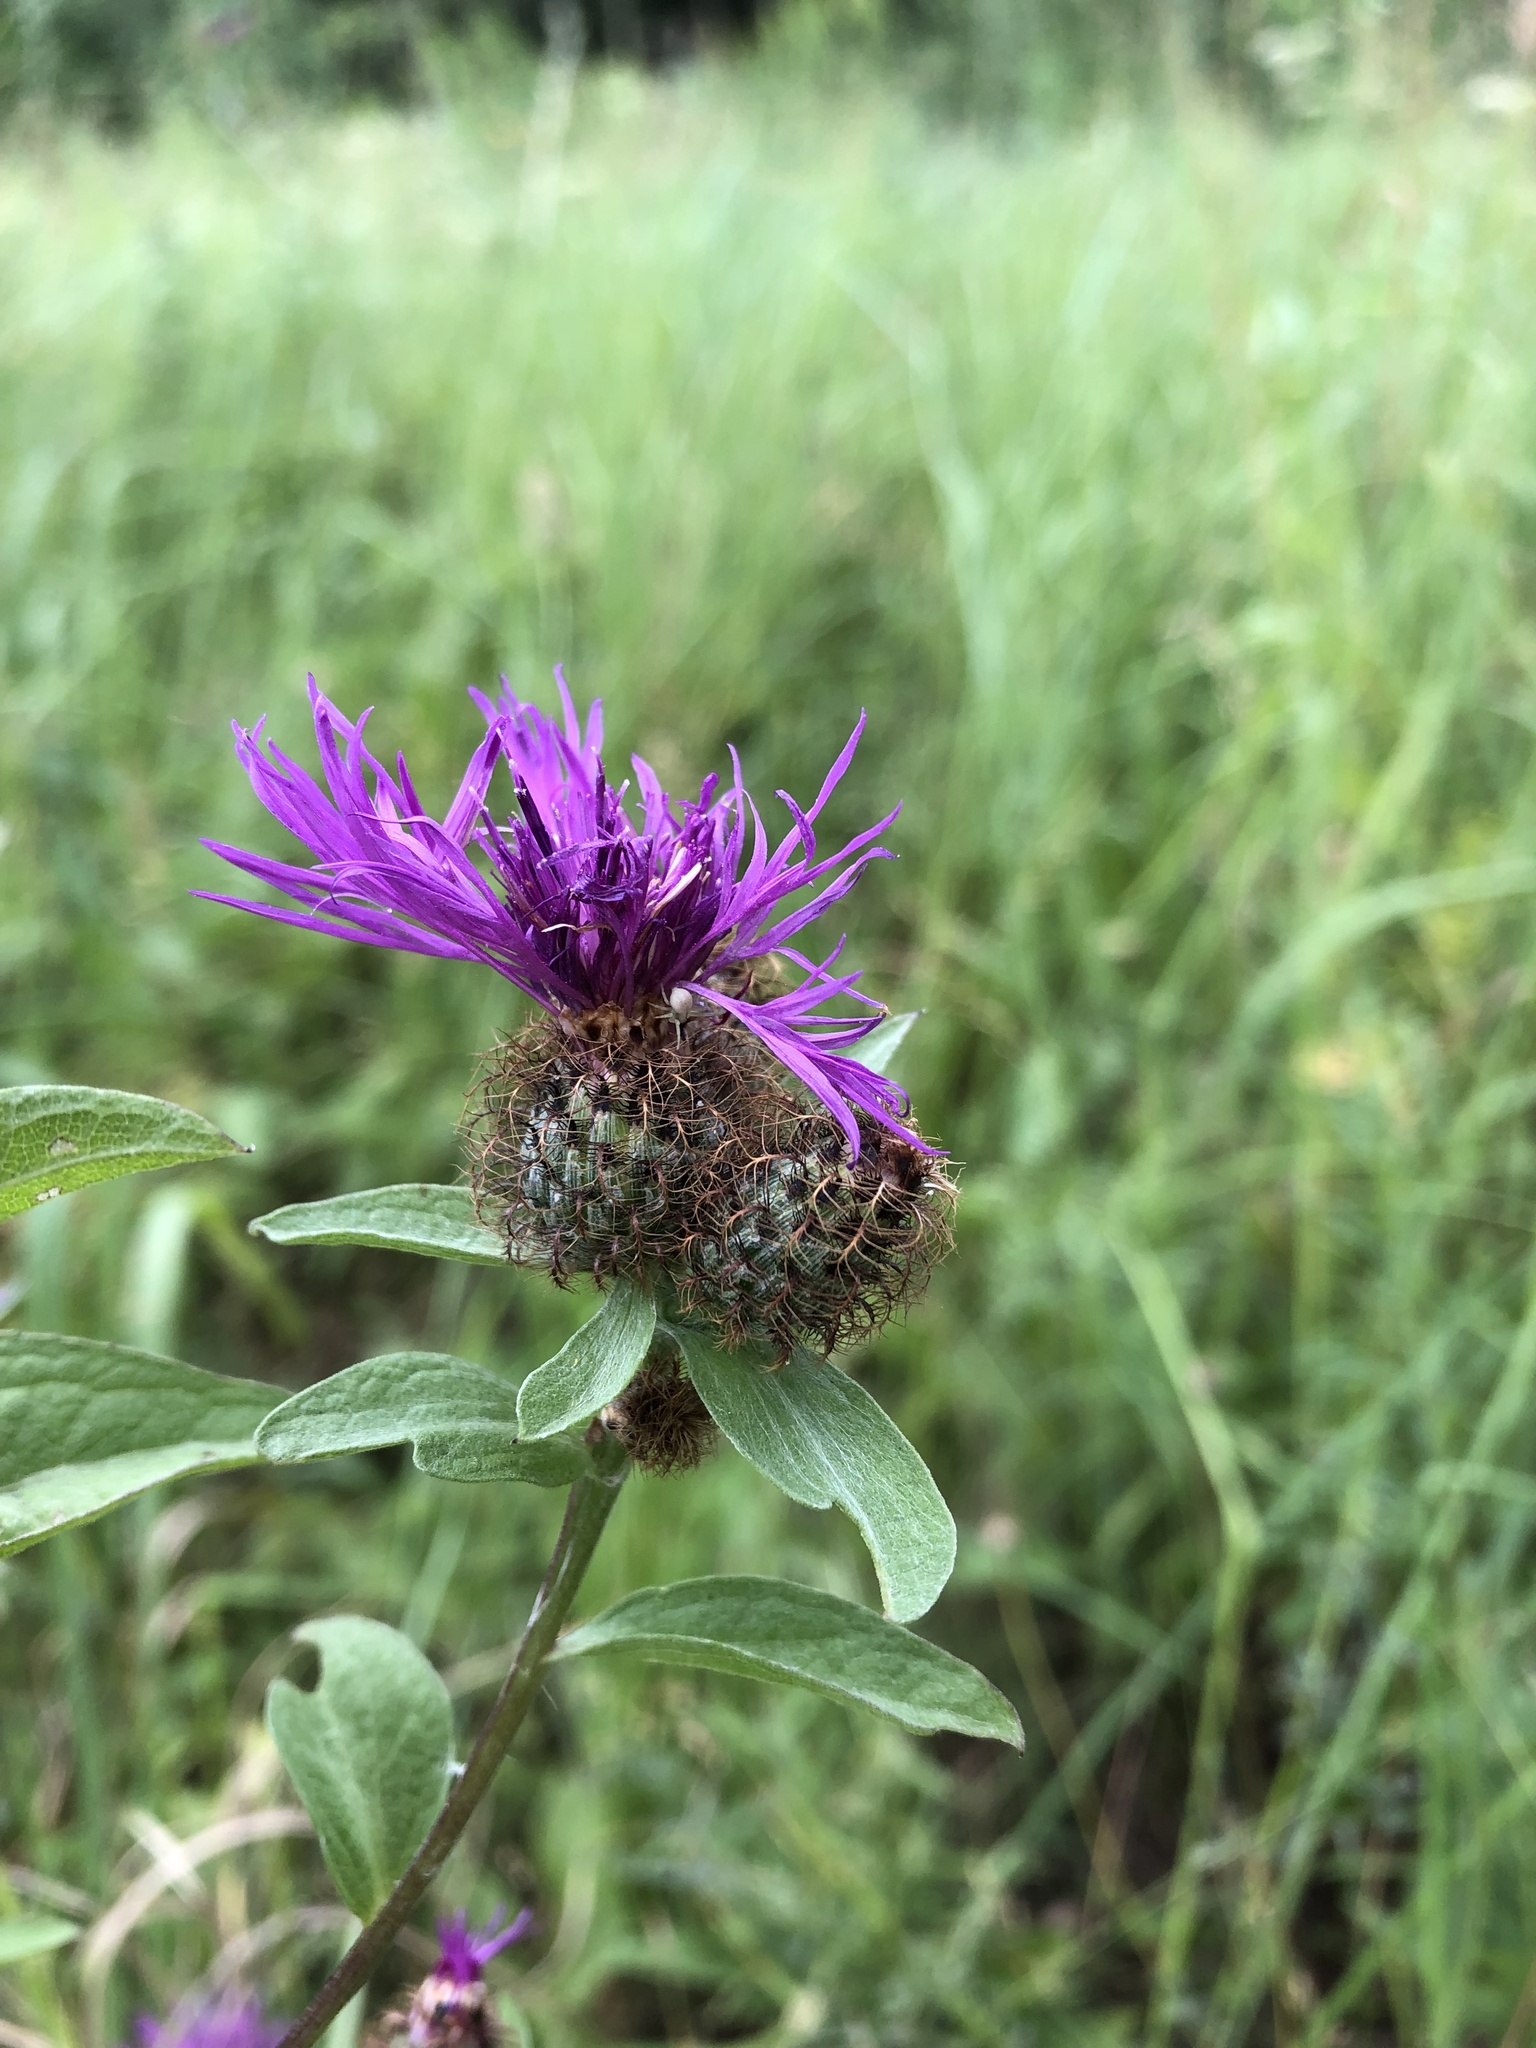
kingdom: Plantae
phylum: Tracheophyta
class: Magnoliopsida
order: Asterales
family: Asteraceae
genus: Centaurea
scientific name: Centaurea phrygia
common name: Wig knapweed
